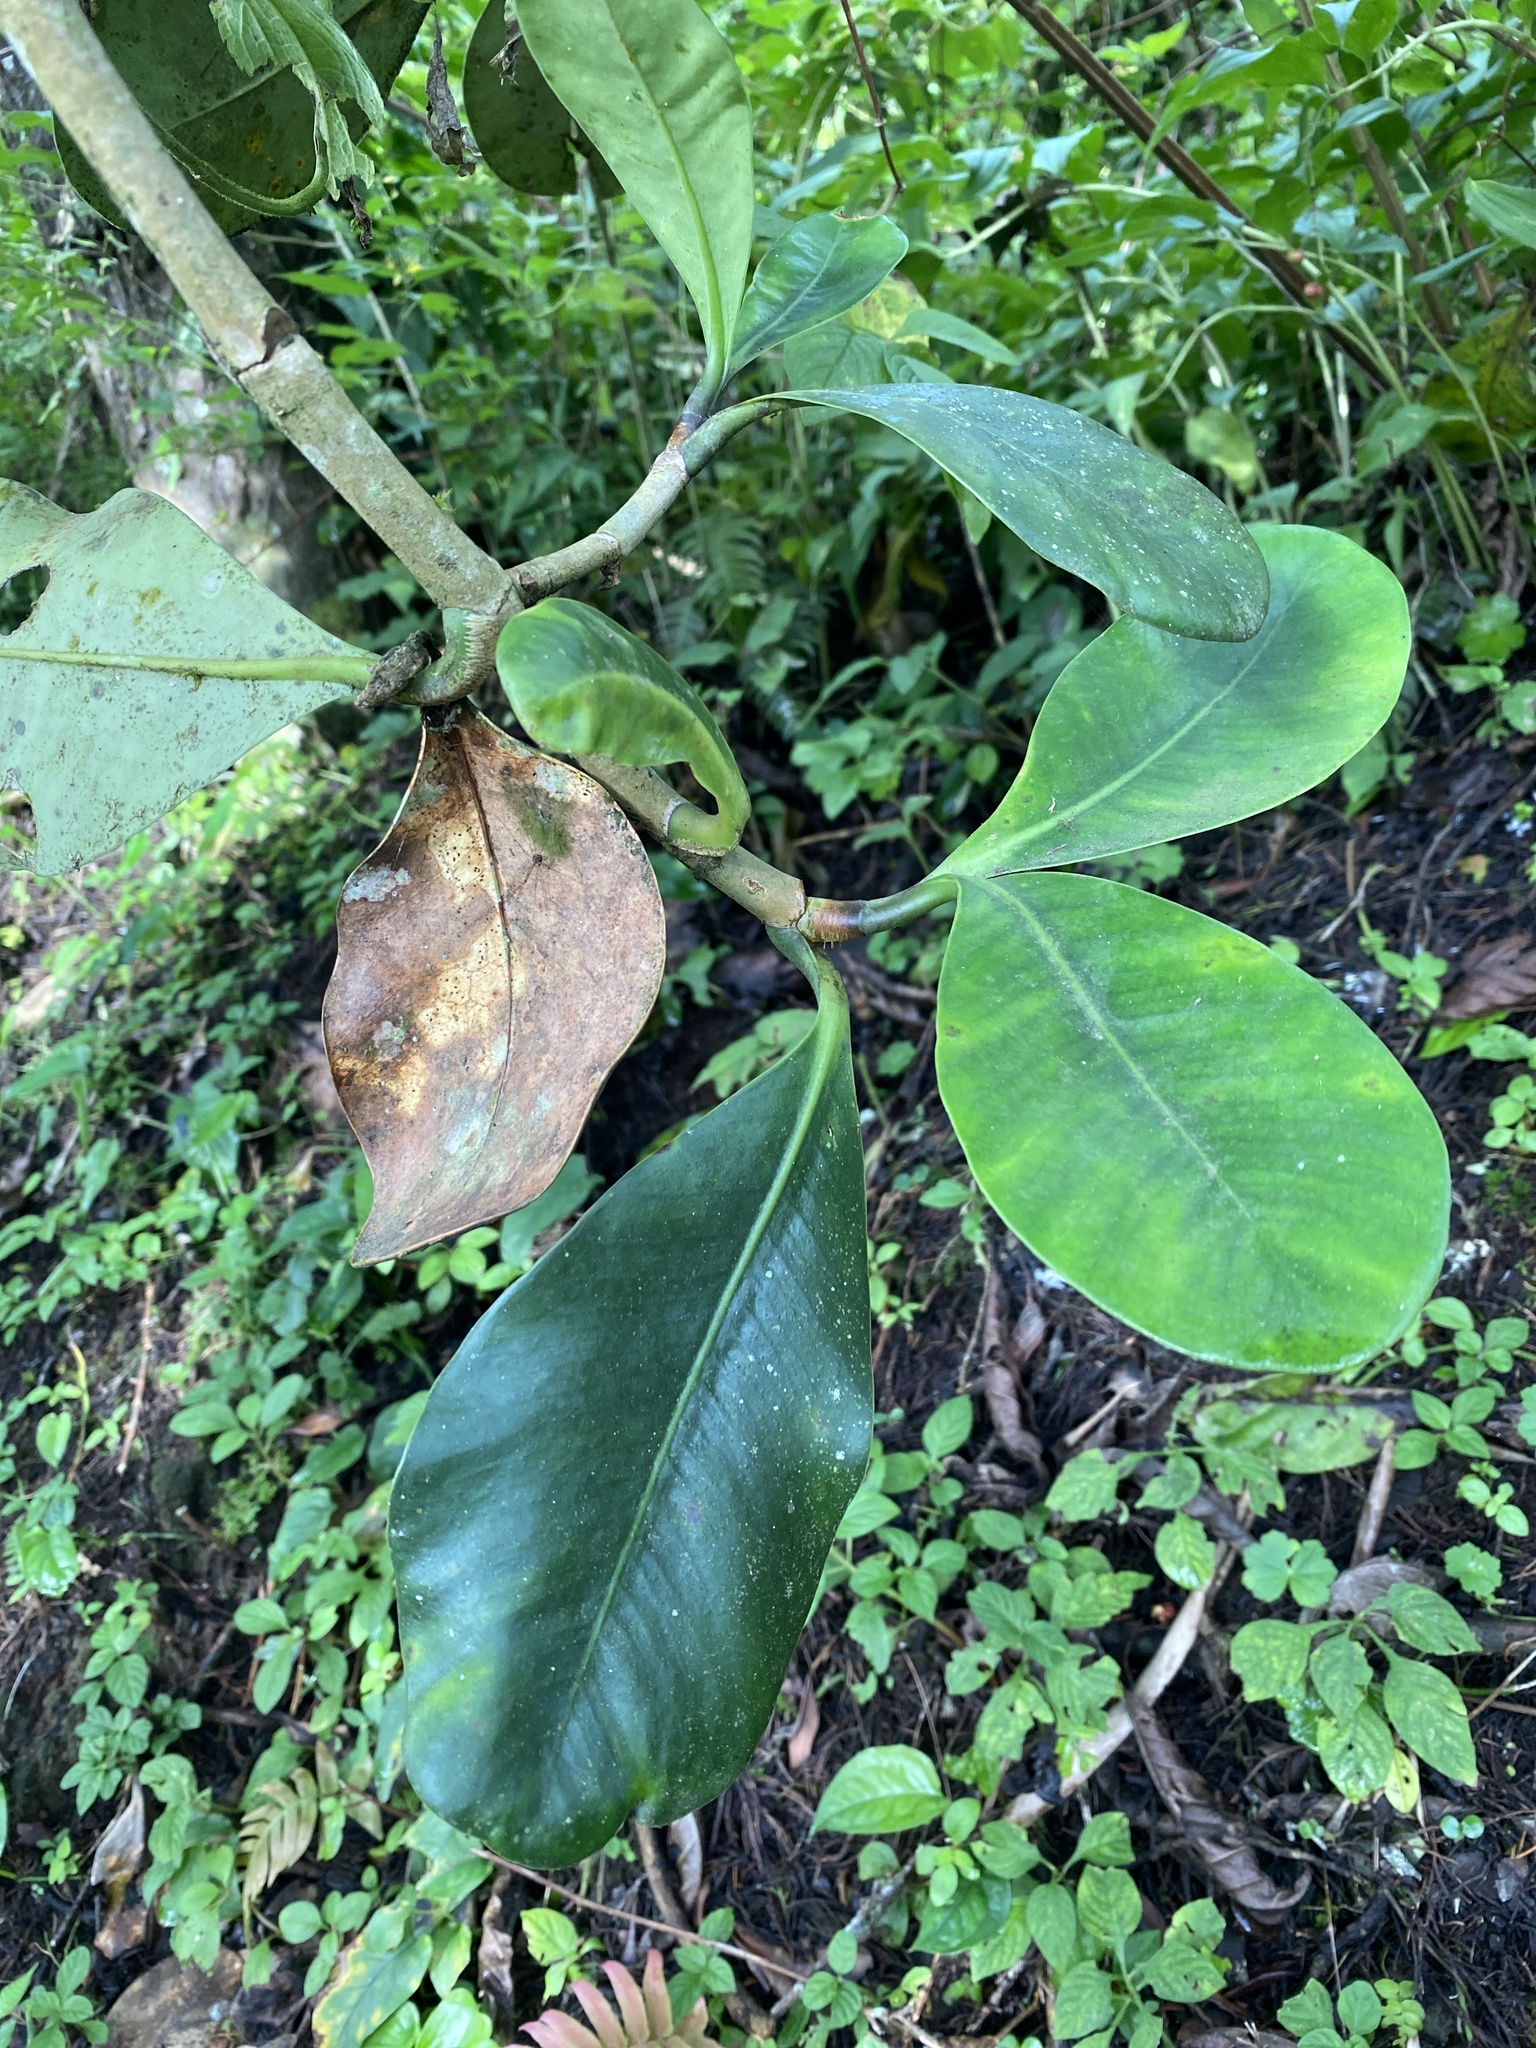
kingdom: Plantae
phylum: Tracheophyta
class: Magnoliopsida
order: Malpighiales
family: Clusiaceae
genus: Clusia
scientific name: Clusia salvinii
